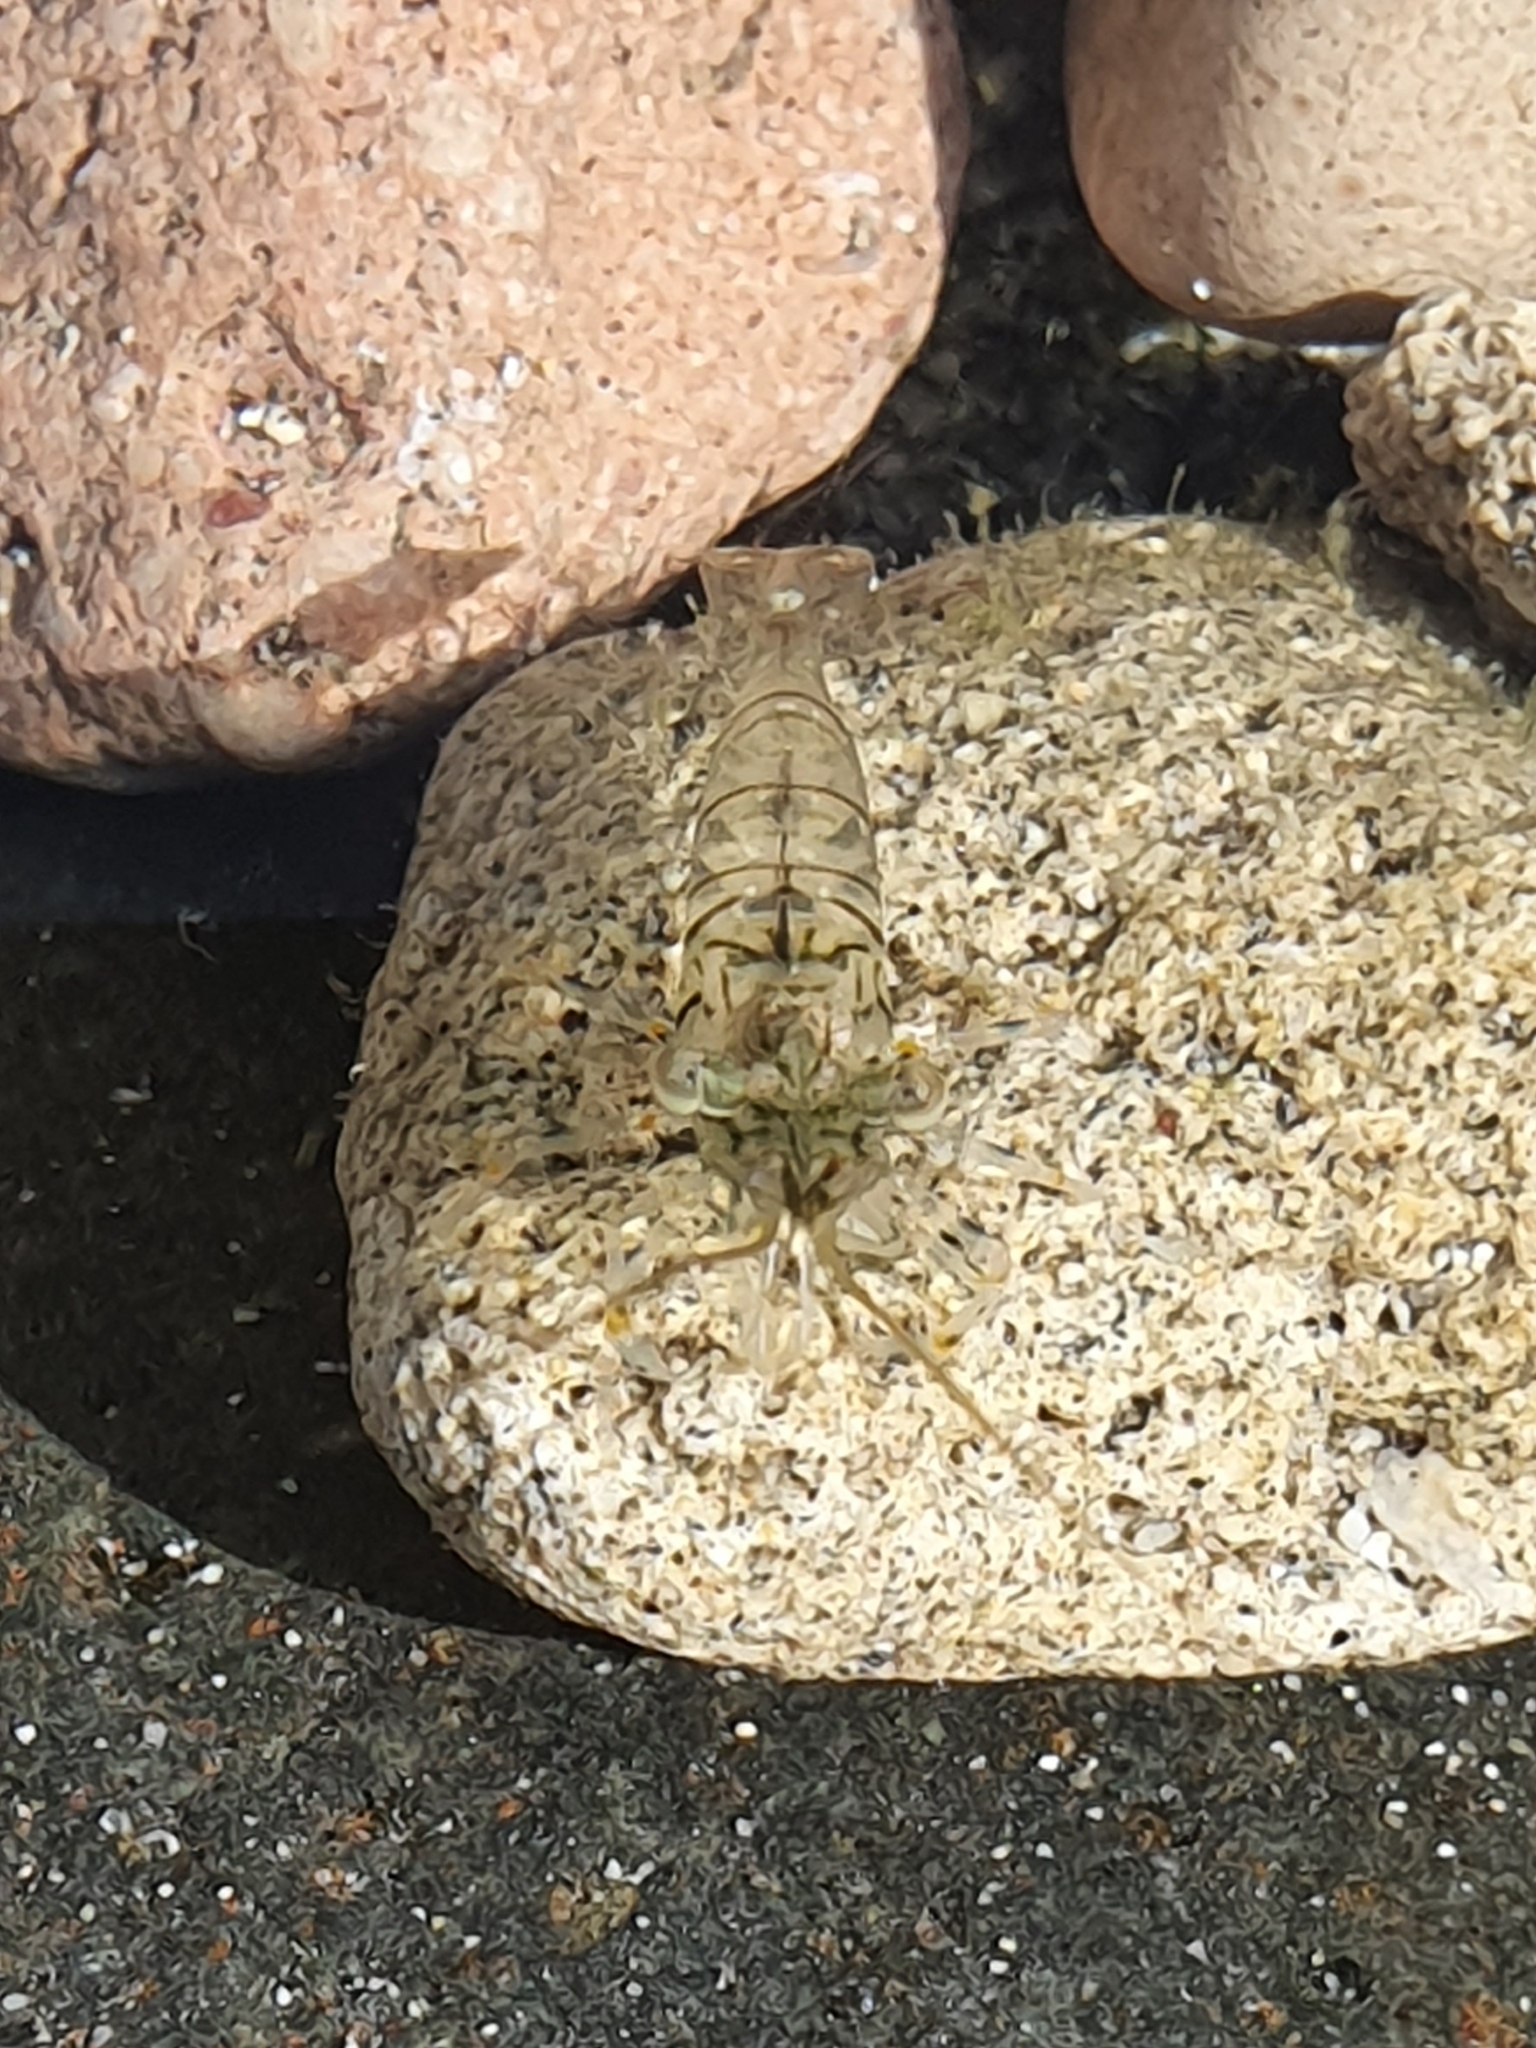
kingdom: Animalia
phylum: Arthropoda
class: Malacostraca
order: Decapoda
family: Palaemonidae
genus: Palaemon
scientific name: Palaemon elegans
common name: Grass prawm
